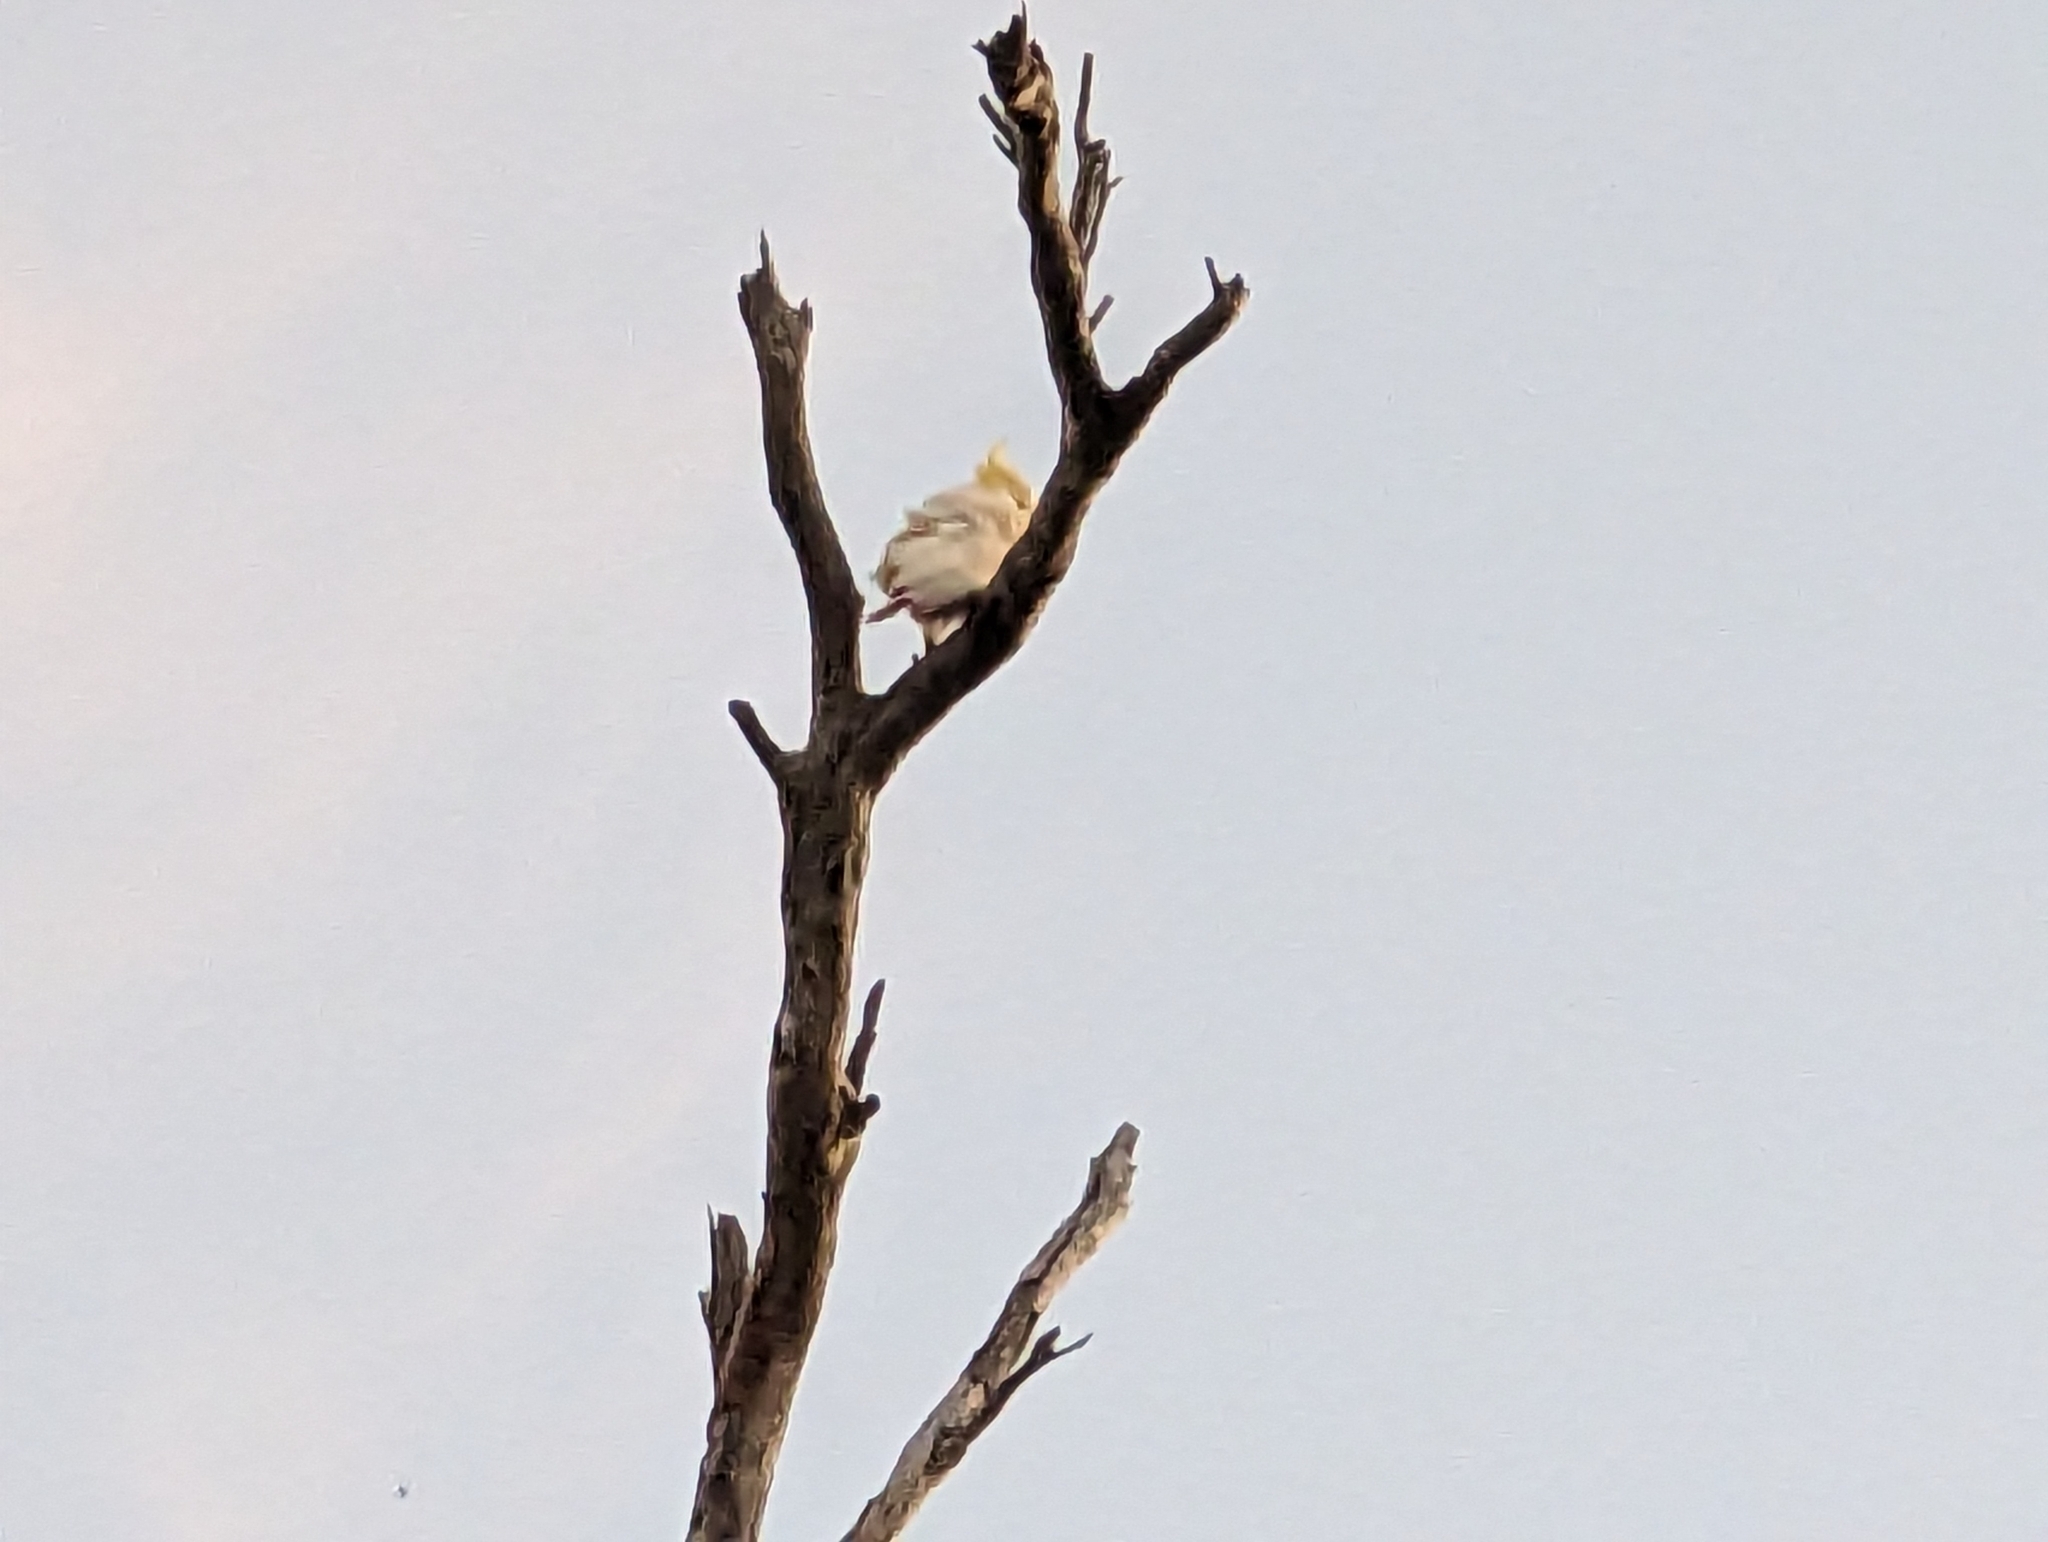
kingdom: Animalia
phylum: Chordata
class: Aves
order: Psittaciformes
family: Psittacidae
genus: Cacatua
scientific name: Cacatua galerita
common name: Sulphur-crested cockatoo
